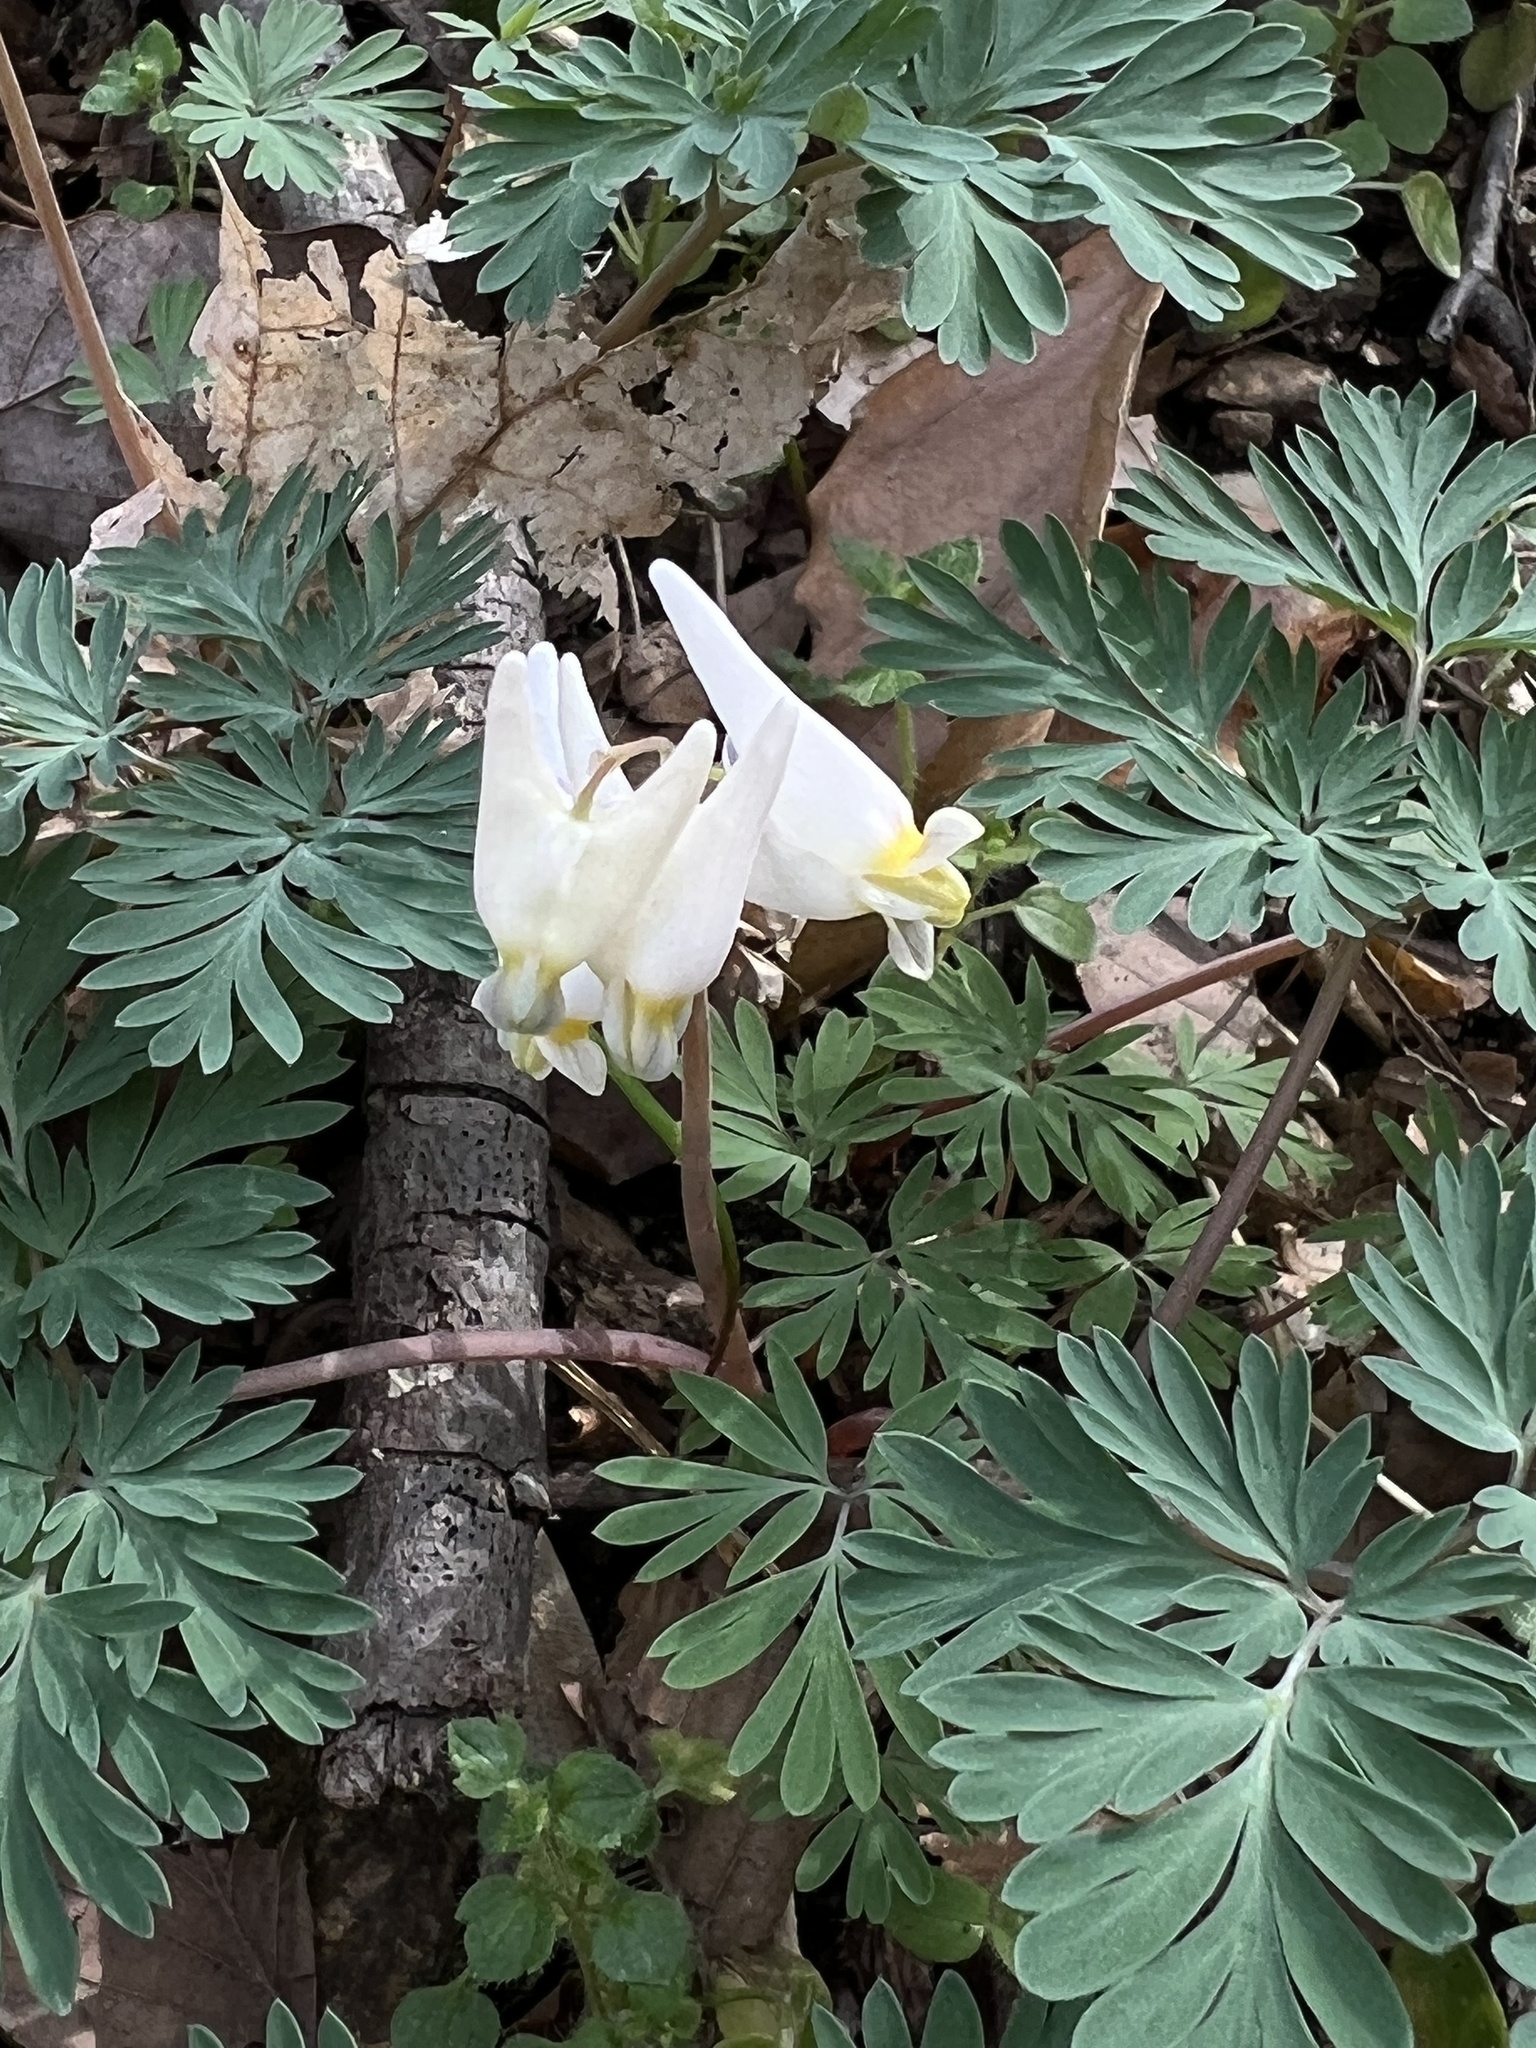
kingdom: Plantae
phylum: Tracheophyta
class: Magnoliopsida
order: Ranunculales
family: Papaveraceae
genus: Dicentra
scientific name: Dicentra cucullaria
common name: Dutchman's breeches
